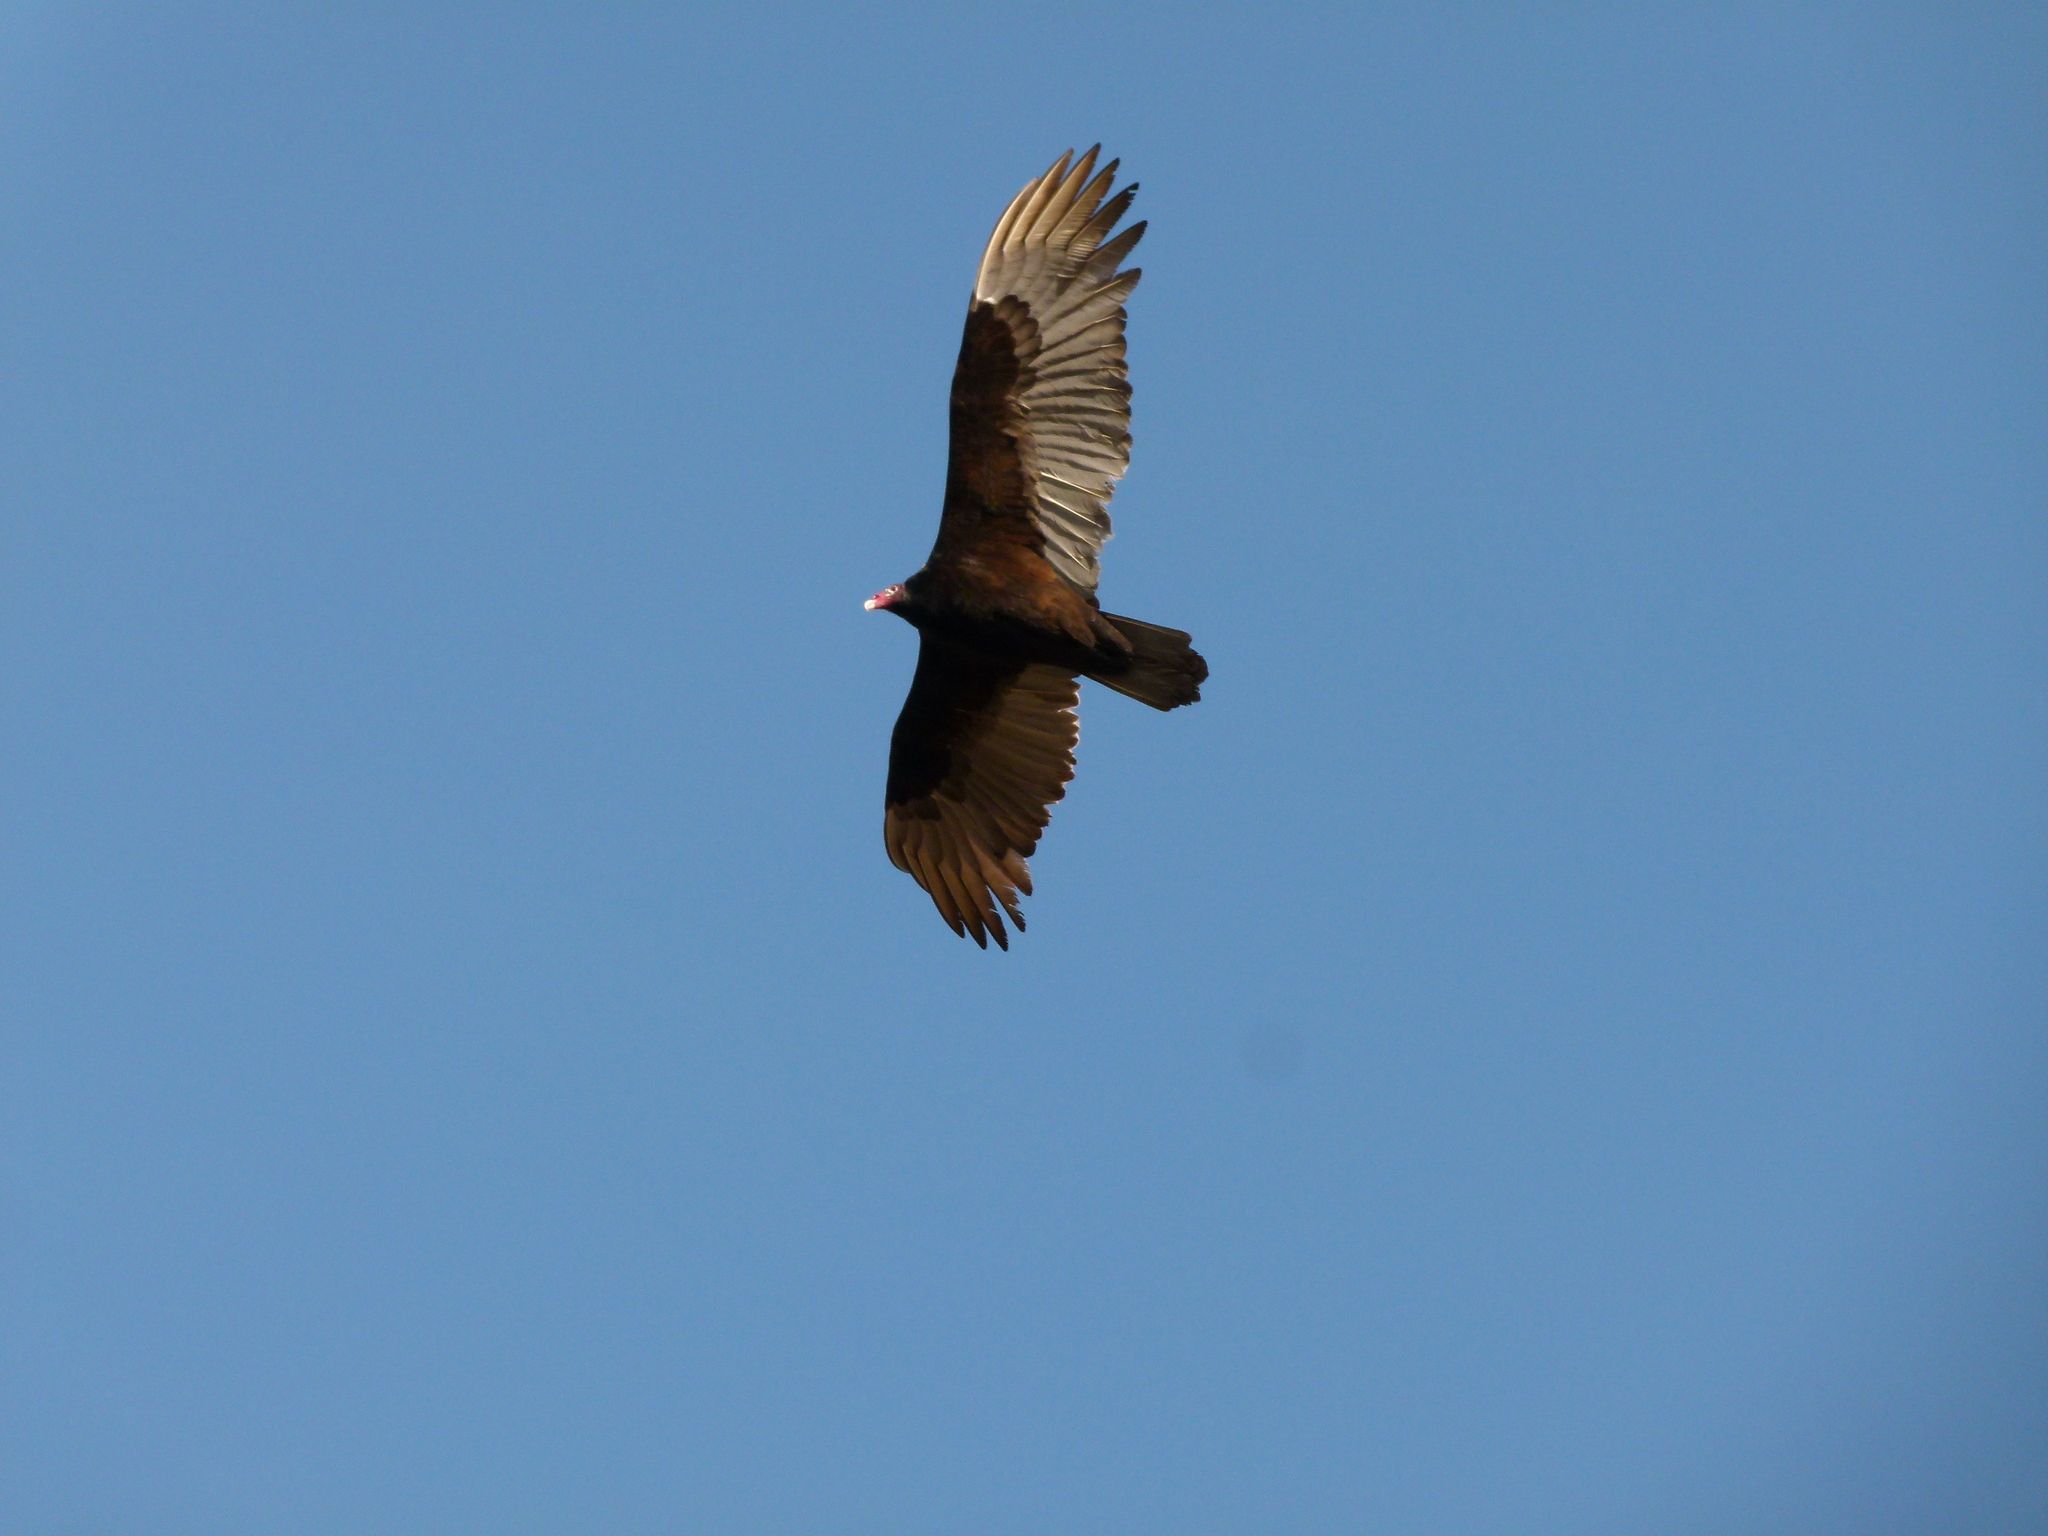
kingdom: Animalia
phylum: Chordata
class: Aves
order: Accipitriformes
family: Cathartidae
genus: Cathartes
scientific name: Cathartes aura
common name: Turkey vulture
